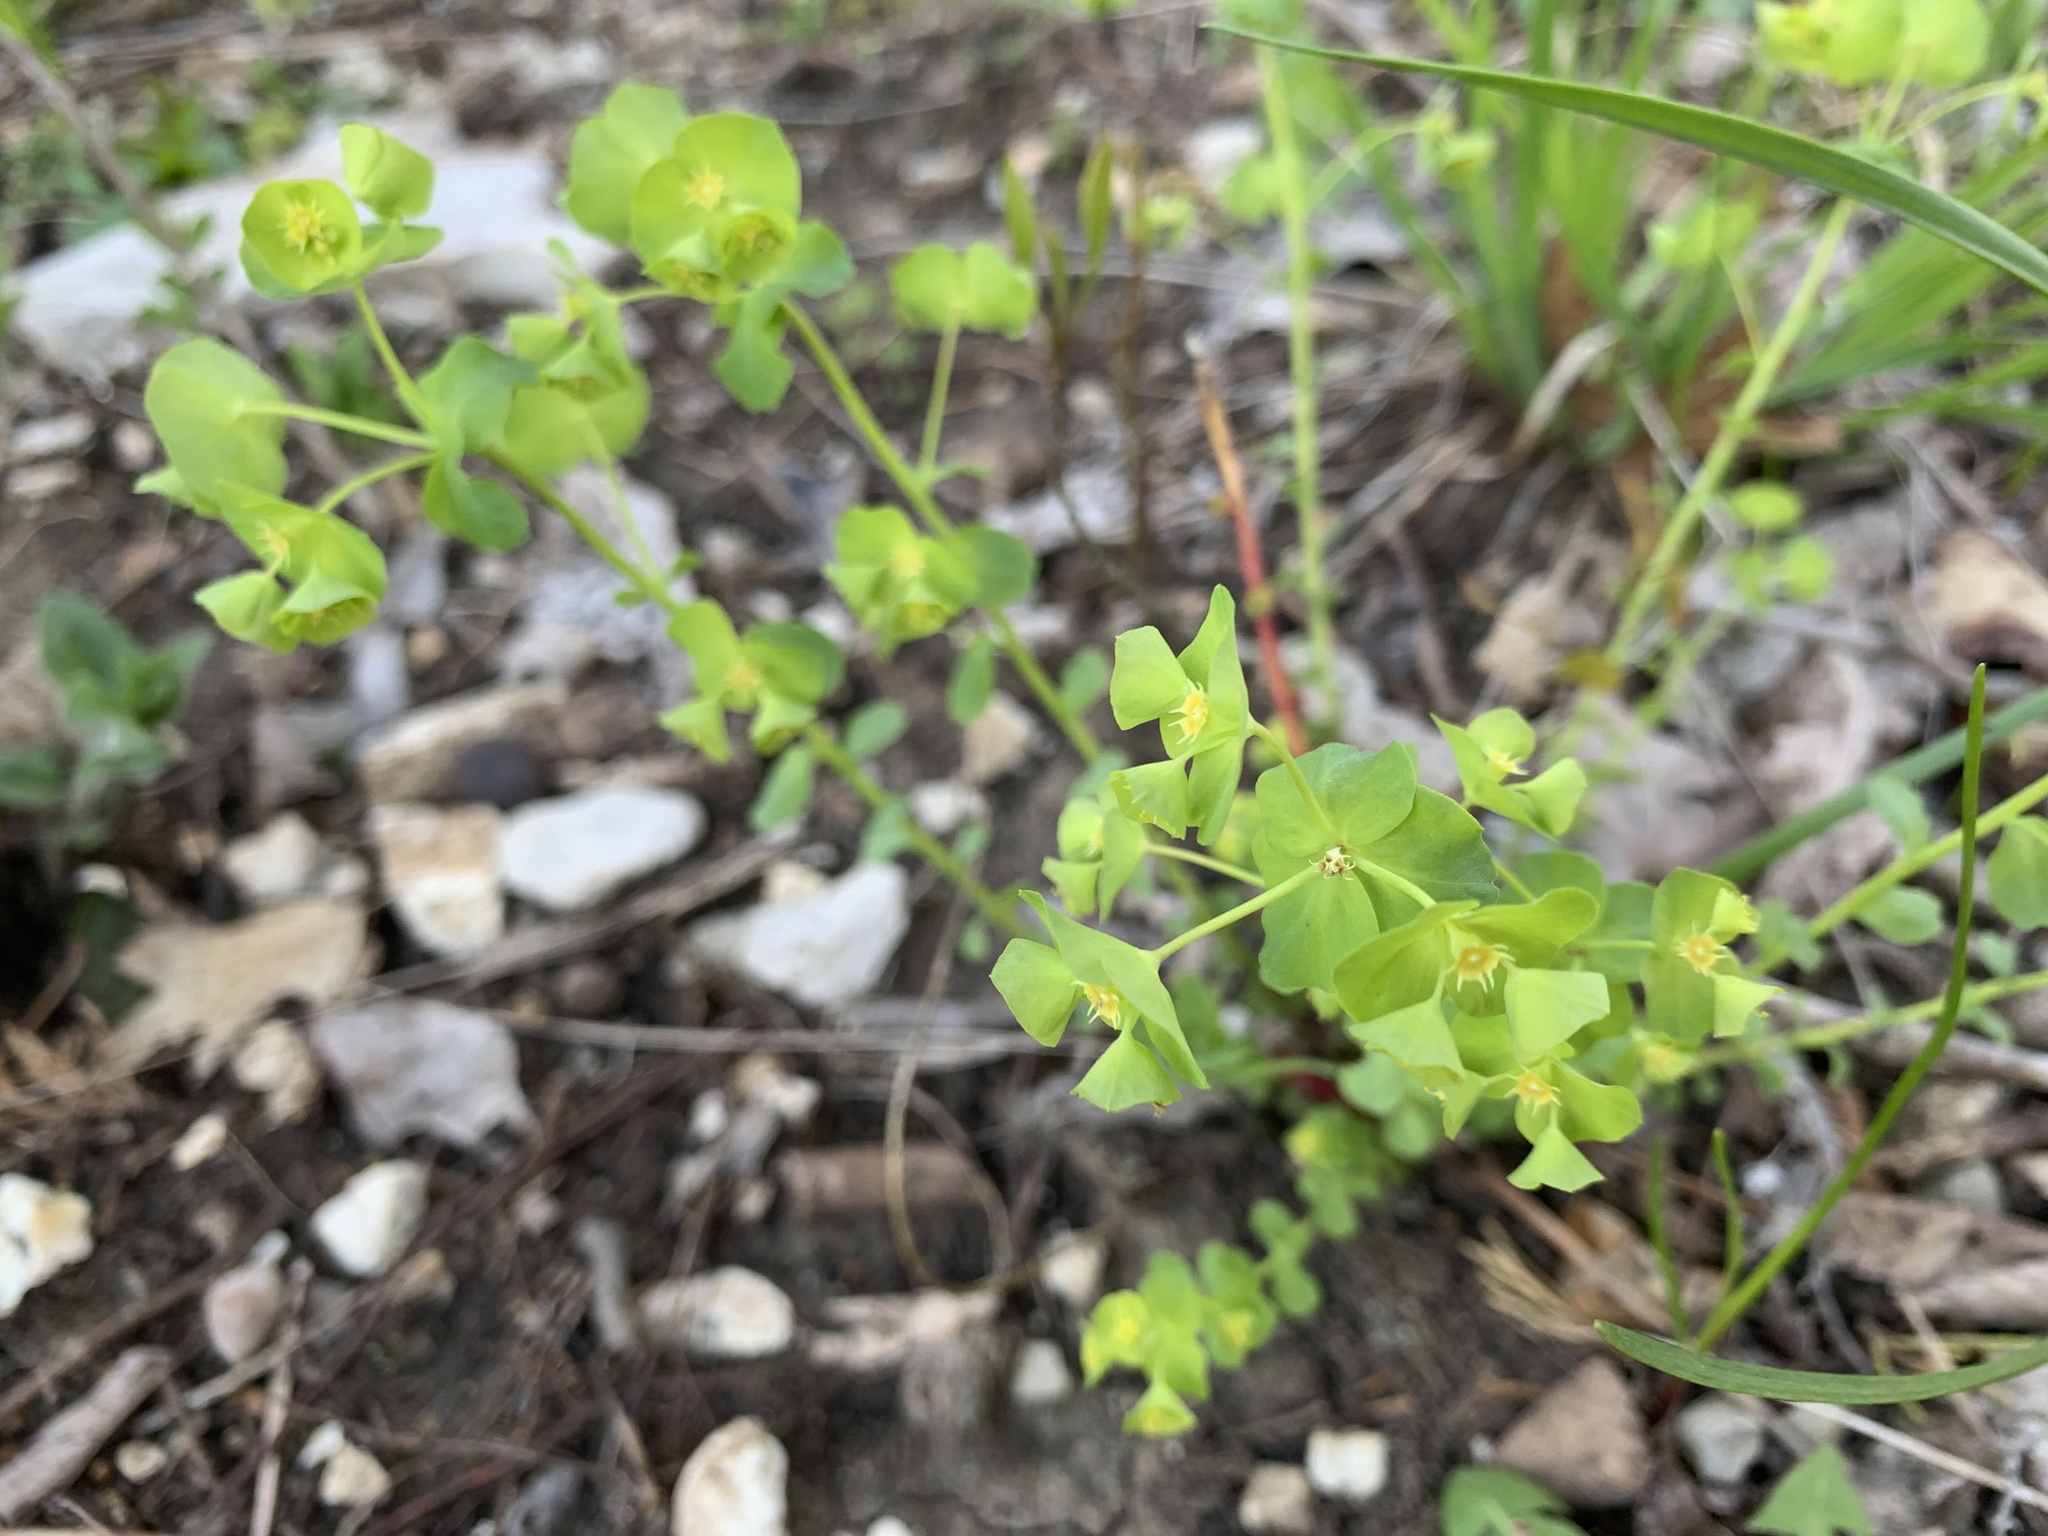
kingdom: Plantae
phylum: Tracheophyta
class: Magnoliopsida
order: Malpighiales
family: Euphorbiaceae
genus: Euphorbia
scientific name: Euphorbia commutata
